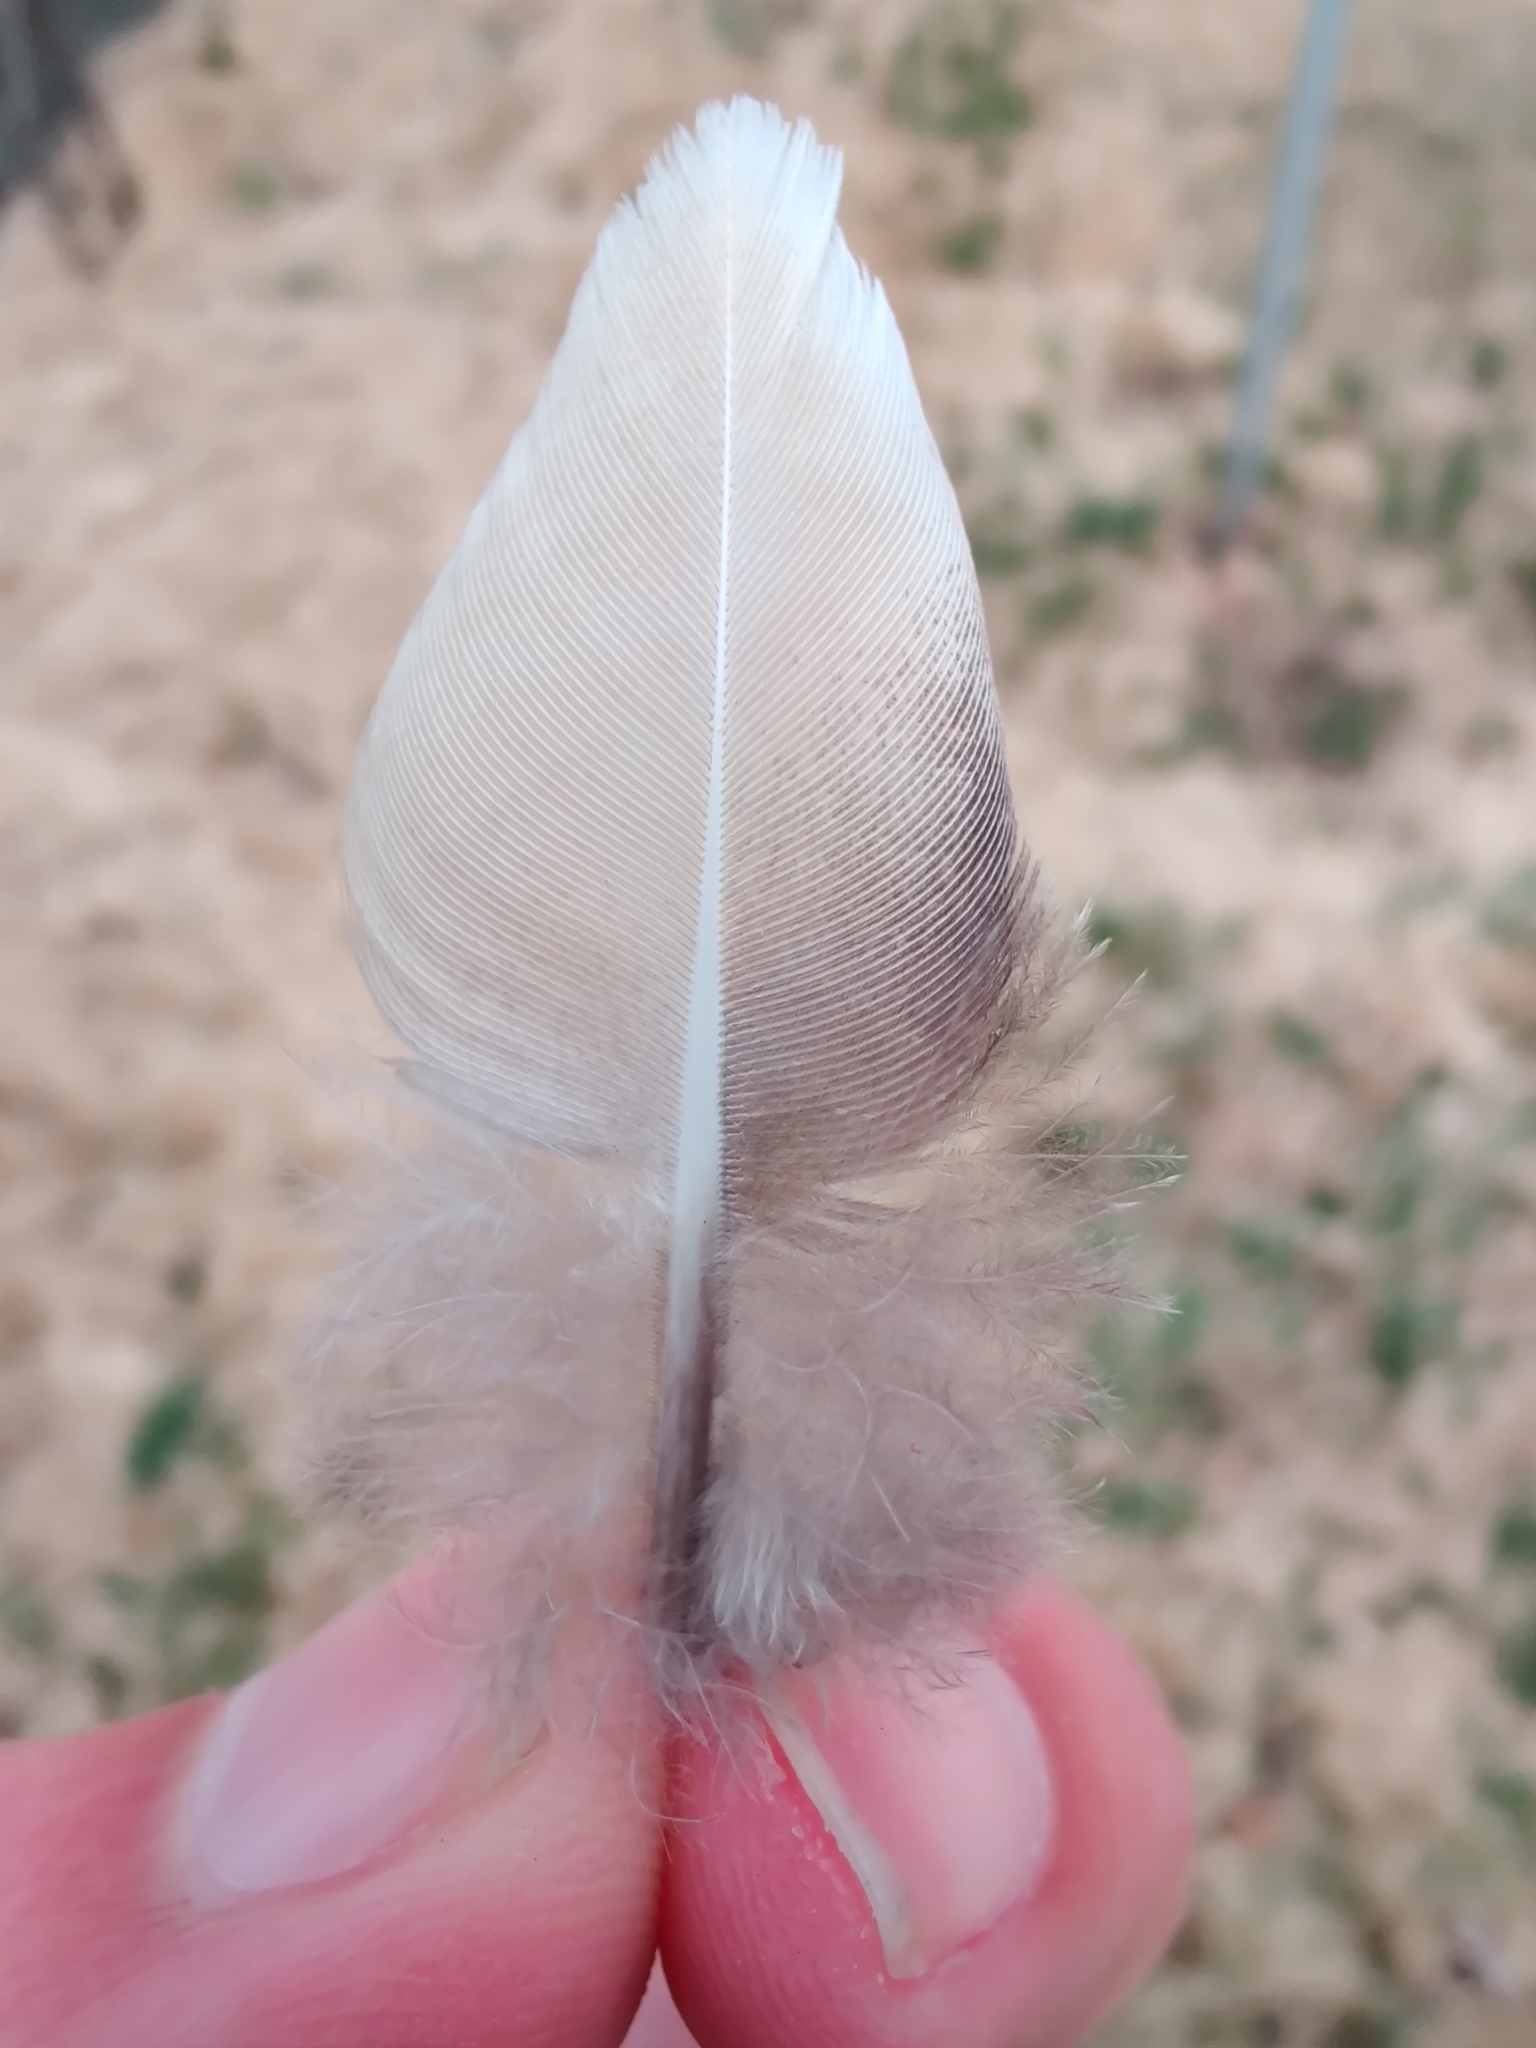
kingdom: Animalia
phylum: Chordata
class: Aves
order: Columbiformes
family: Columbidae
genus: Zenaida
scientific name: Zenaida macroura
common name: Mourning dove
